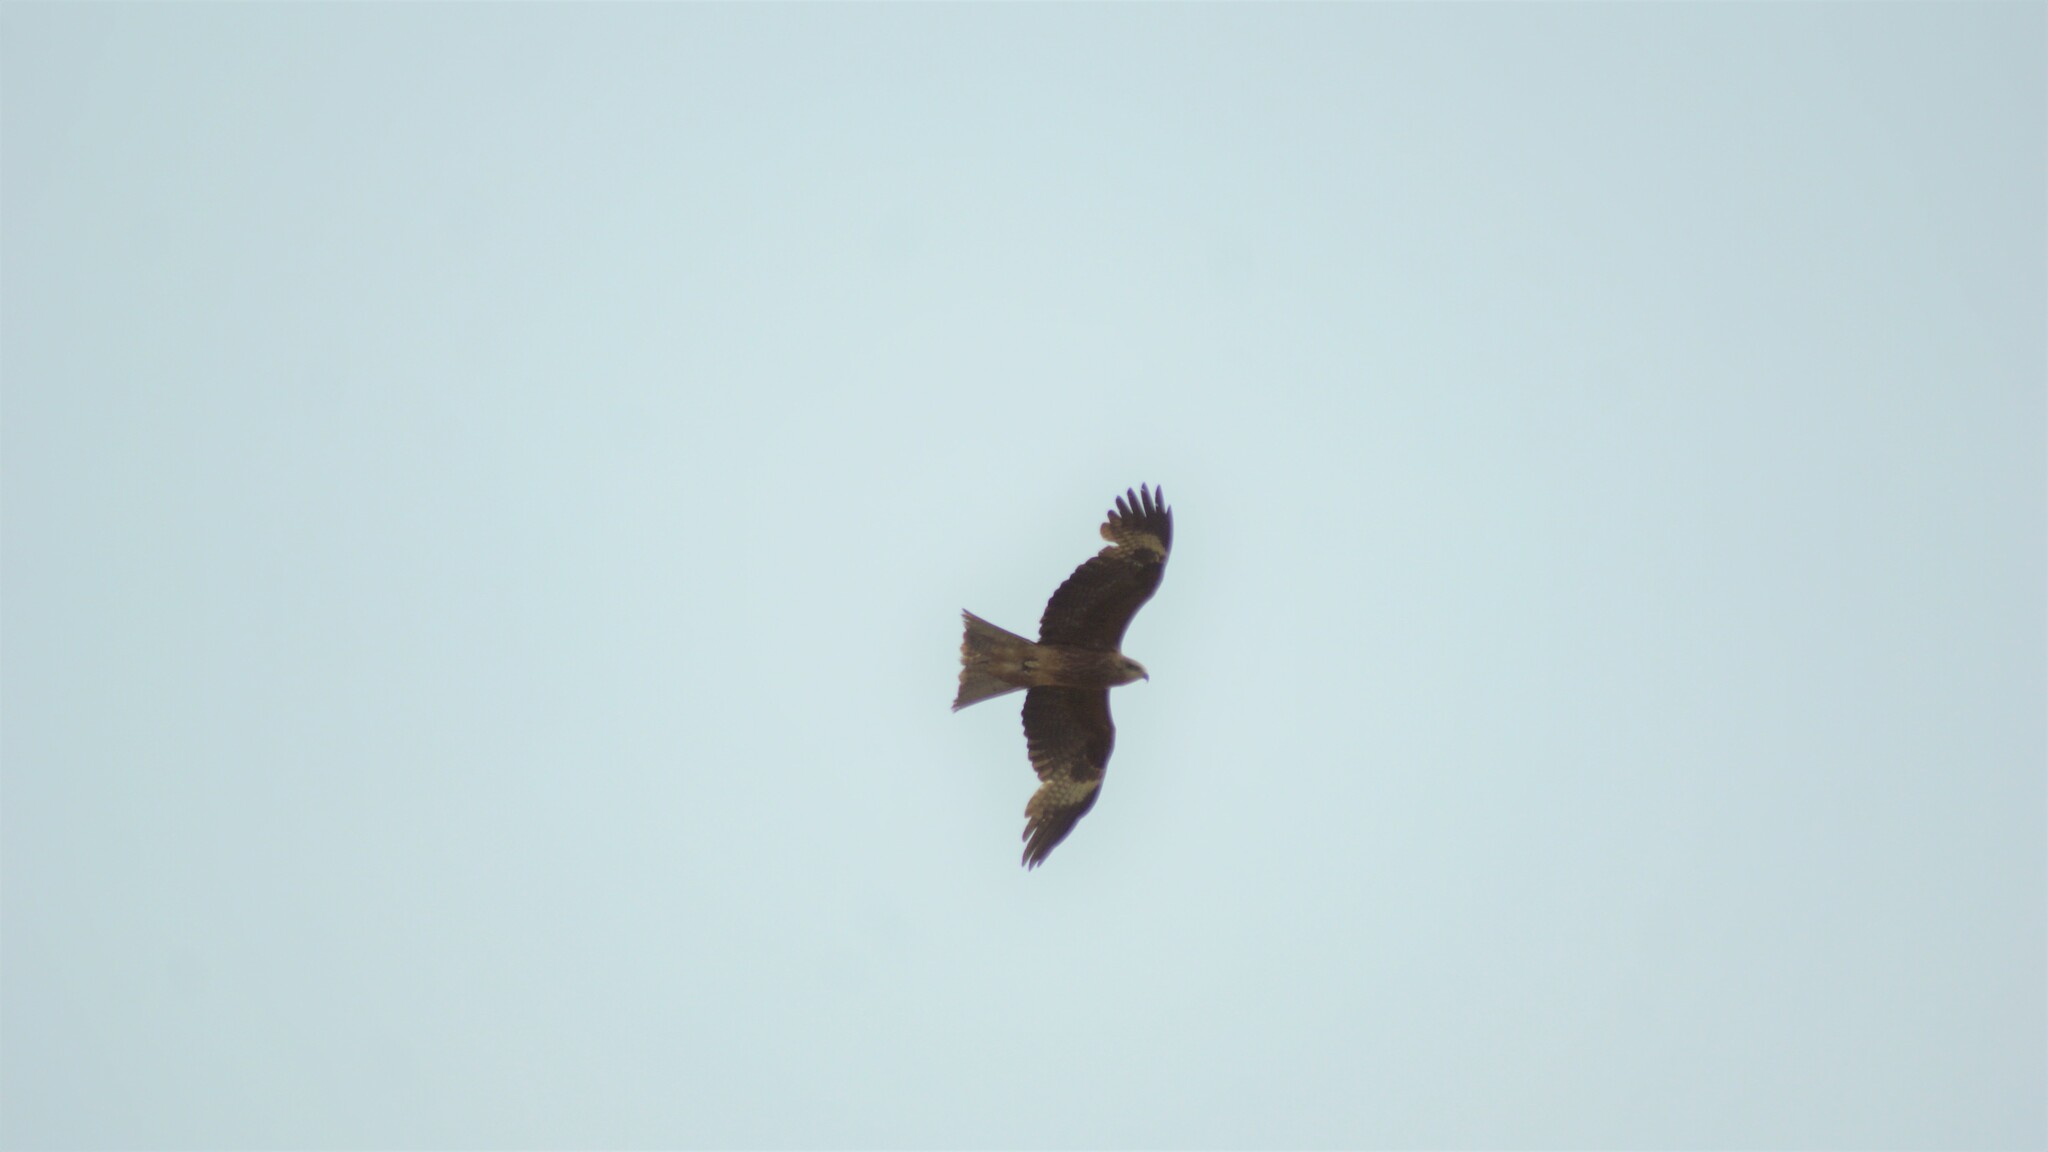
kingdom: Animalia
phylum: Chordata
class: Aves
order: Accipitriformes
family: Accipitridae
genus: Milvus
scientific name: Milvus migrans
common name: Black kite
